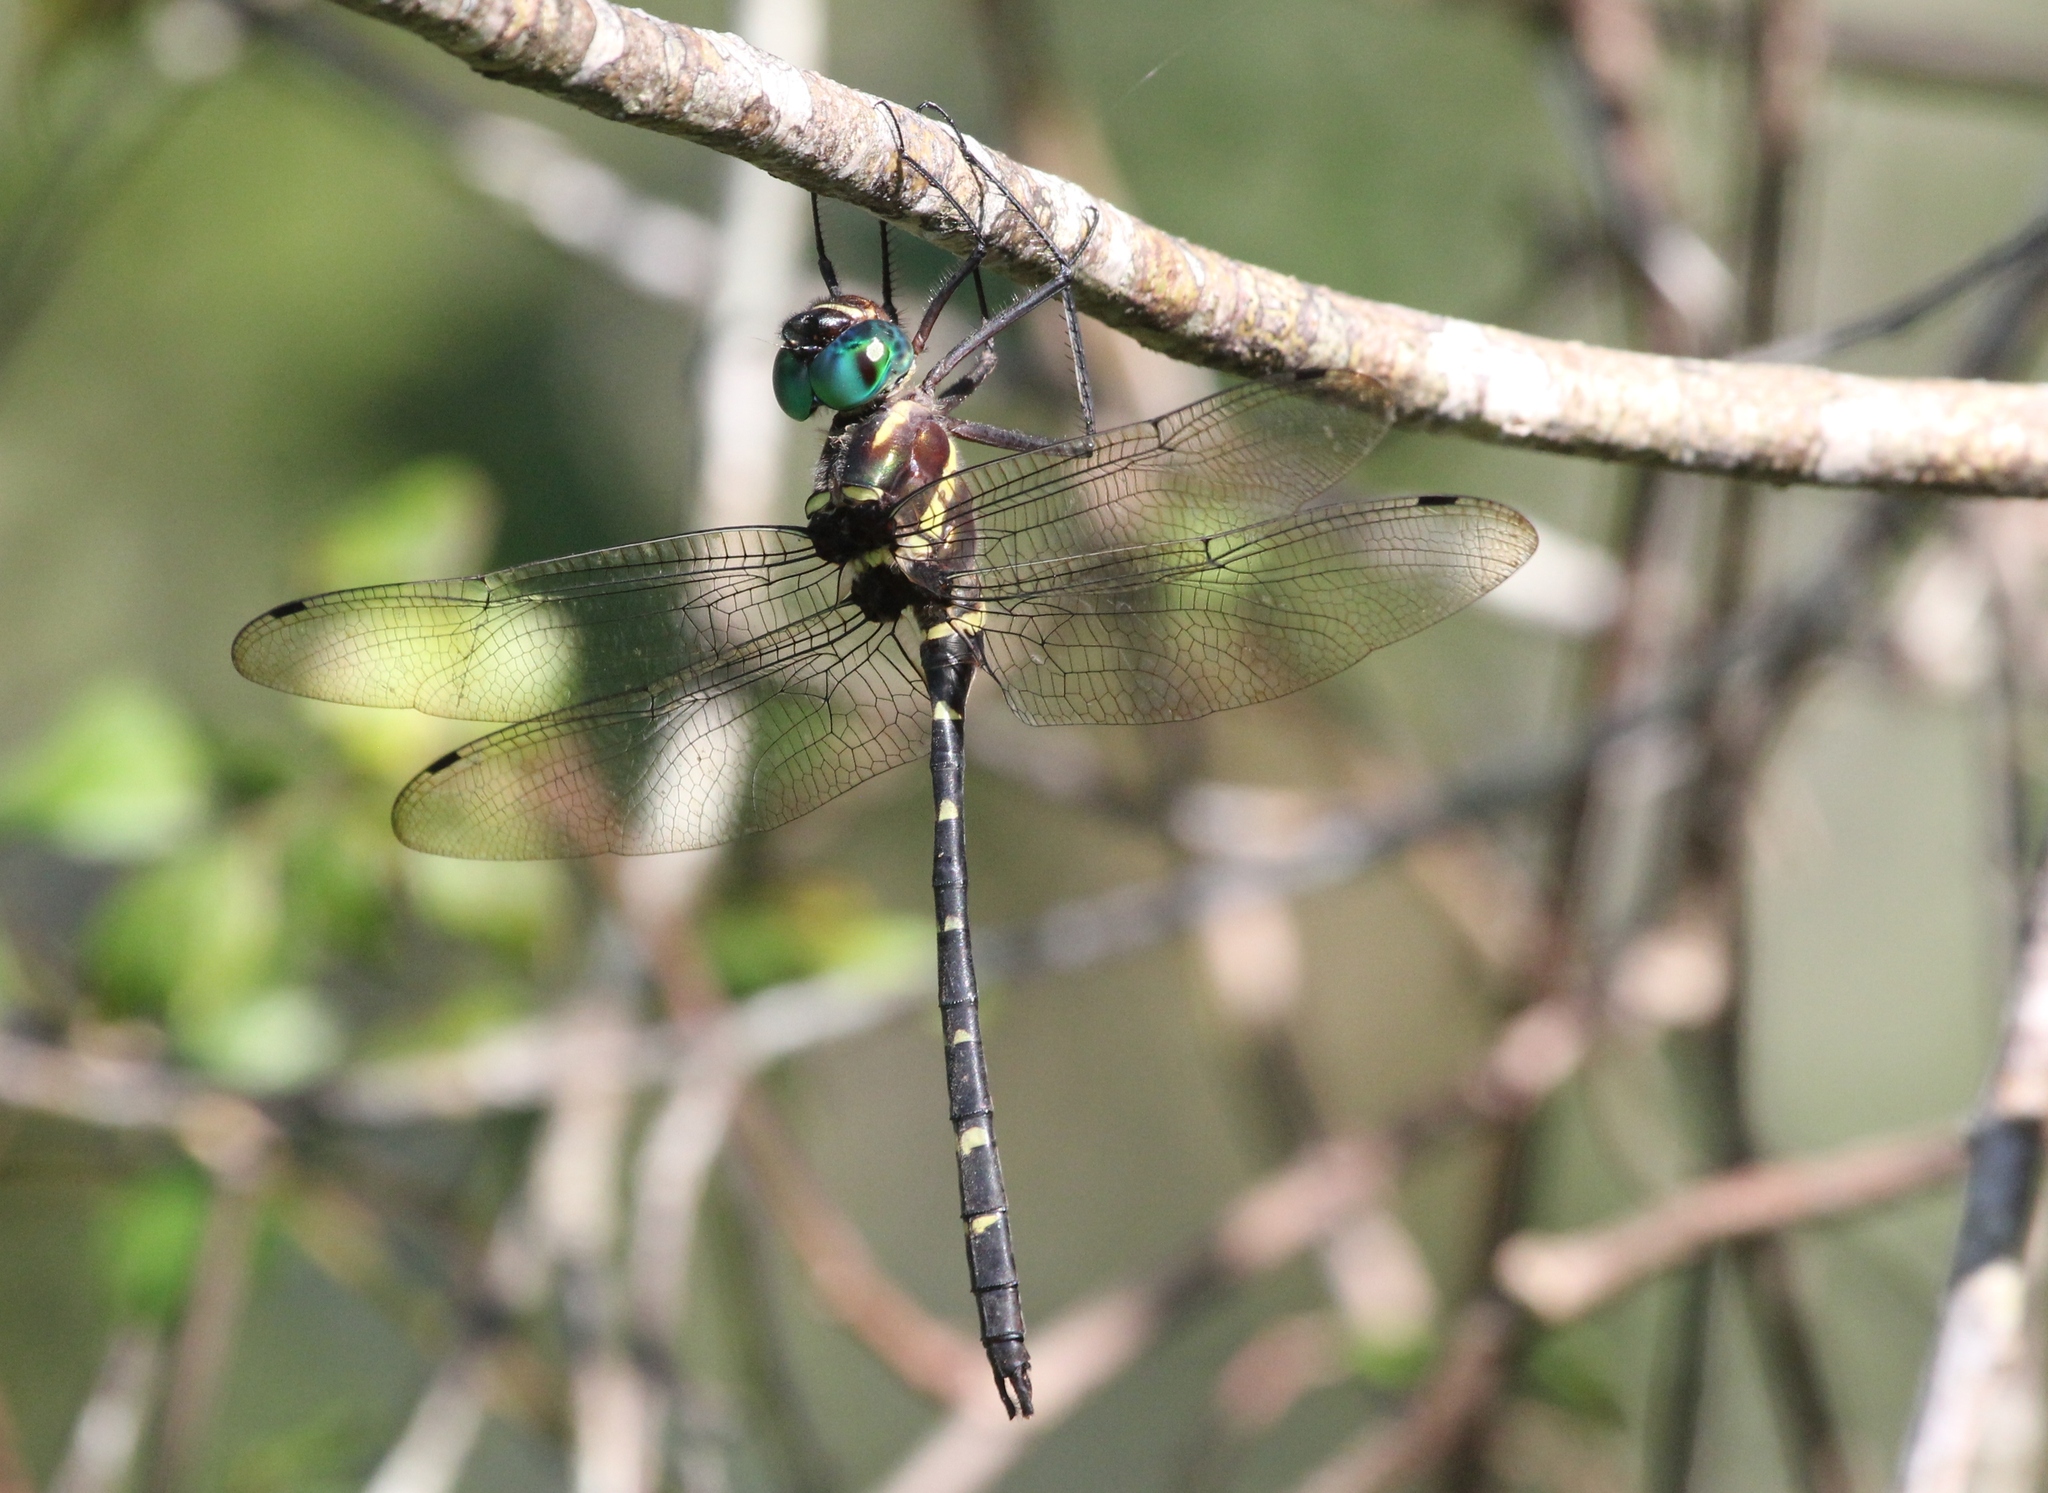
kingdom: Animalia
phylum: Arthropoda
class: Insecta
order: Odonata
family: Macromiidae
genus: Macromia
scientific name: Macromia taeniolata
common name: Royal river cruiser
